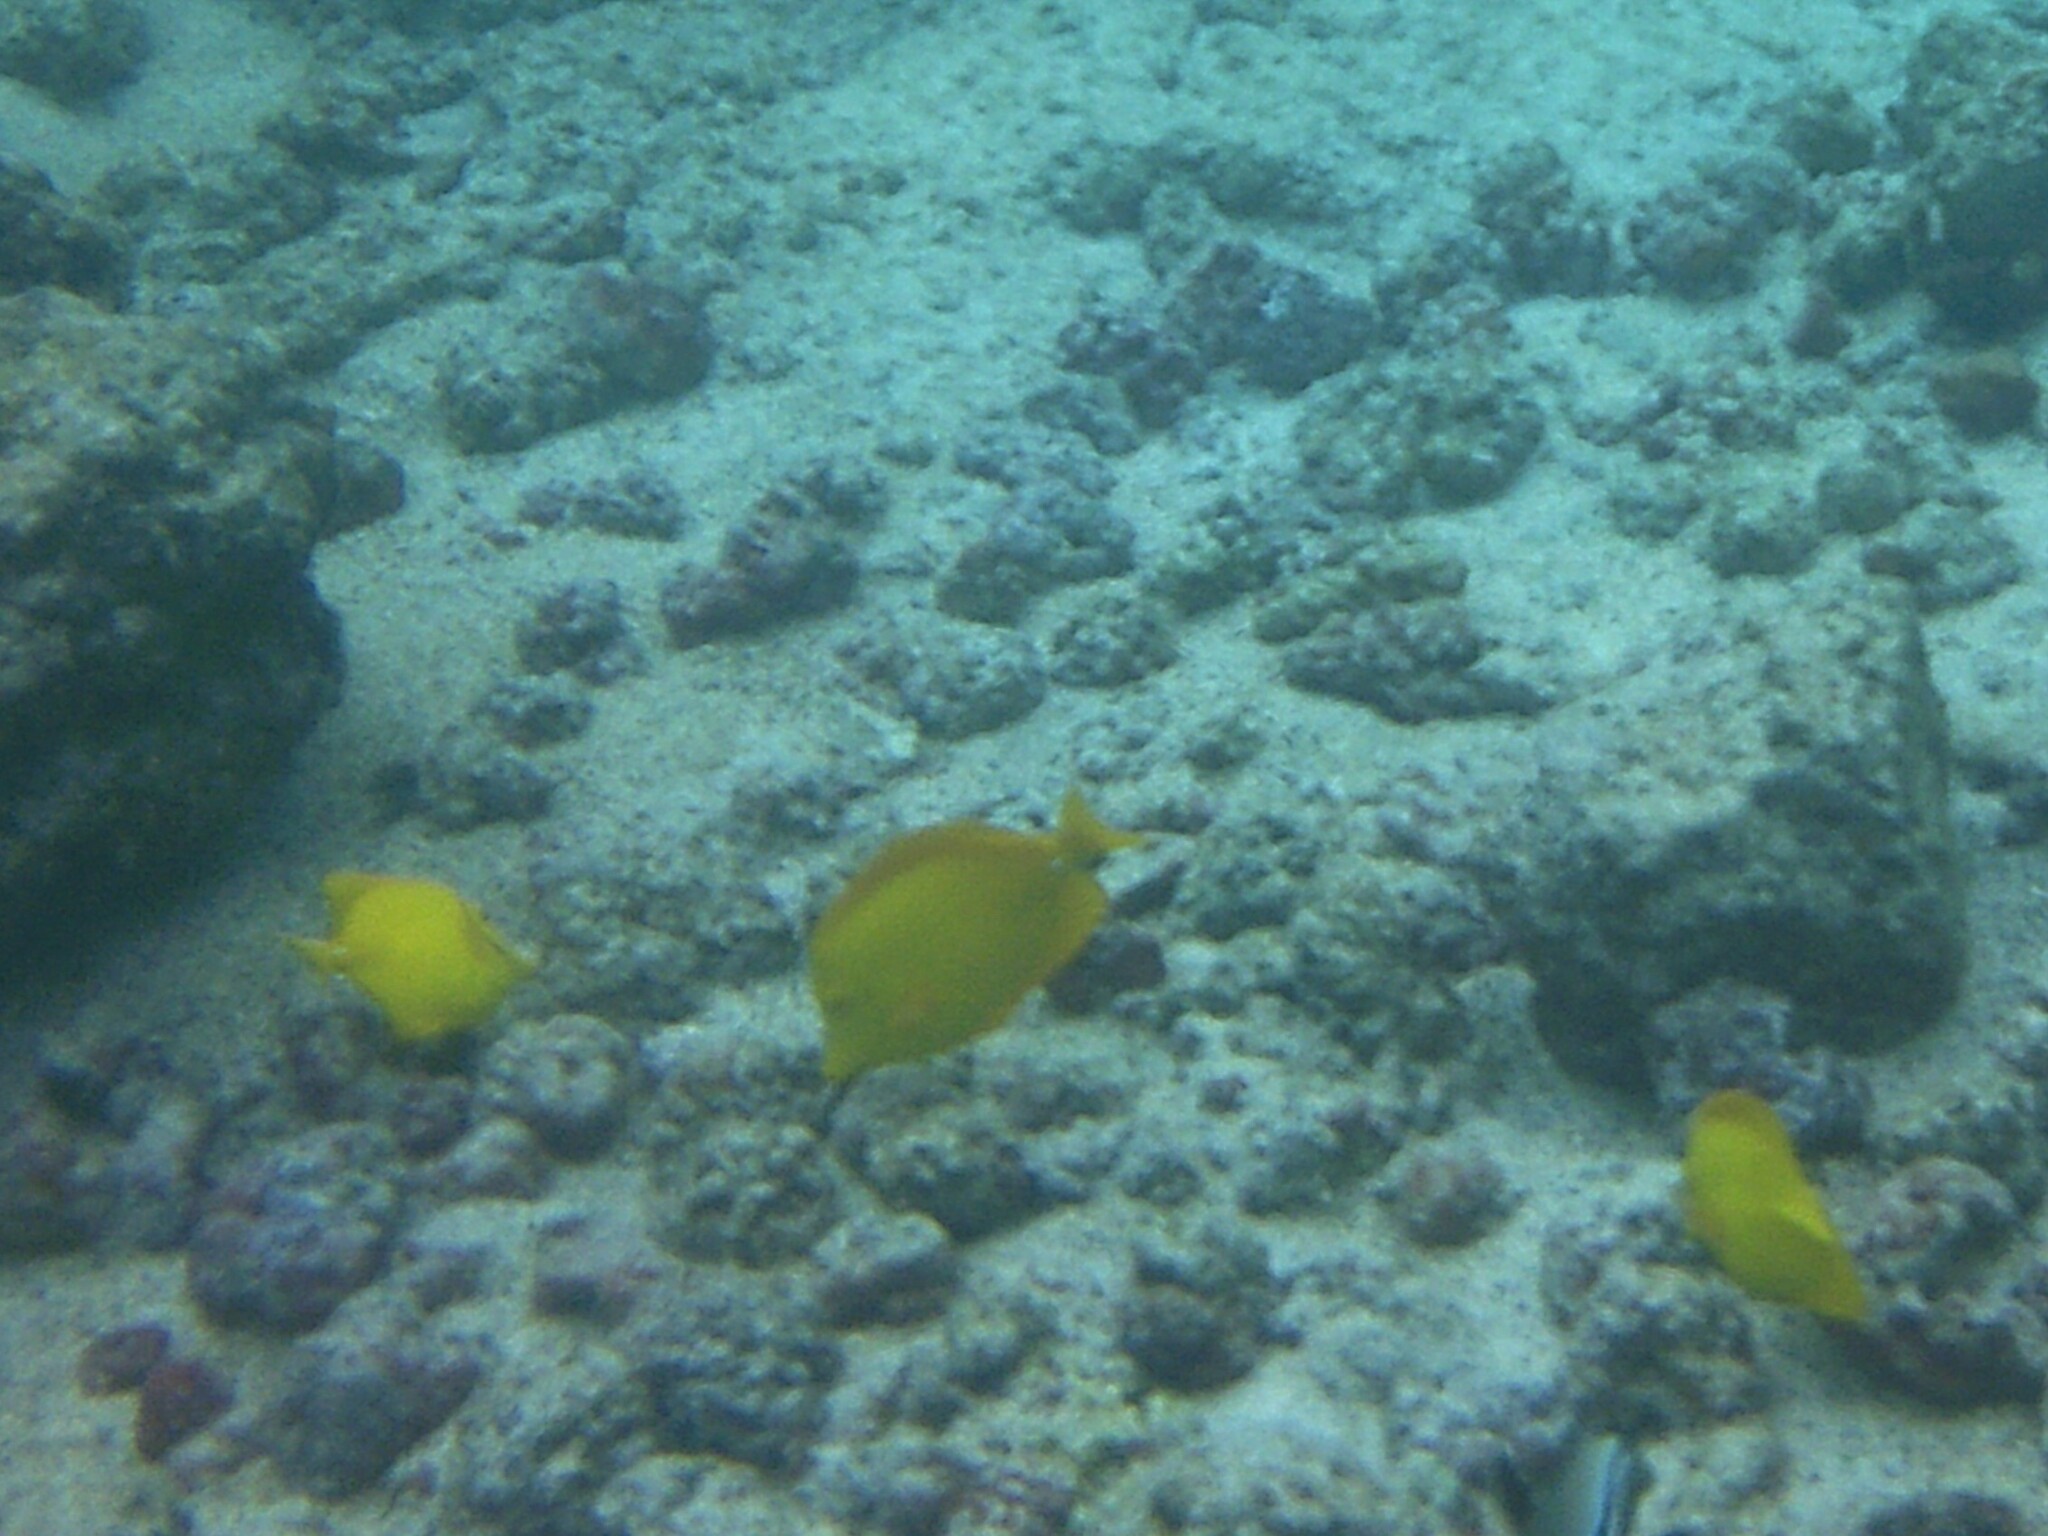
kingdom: Animalia
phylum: Chordata
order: Perciformes
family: Acanthuridae
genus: Zebrasoma
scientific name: Zebrasoma flavescens
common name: Yellow tang
